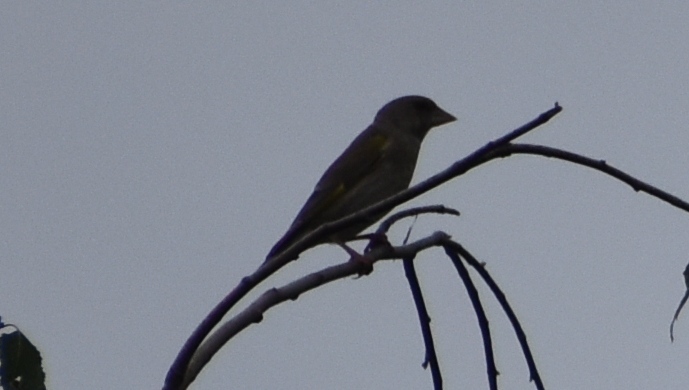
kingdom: Plantae
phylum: Tracheophyta
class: Liliopsida
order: Poales
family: Poaceae
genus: Chloris
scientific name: Chloris chloris
